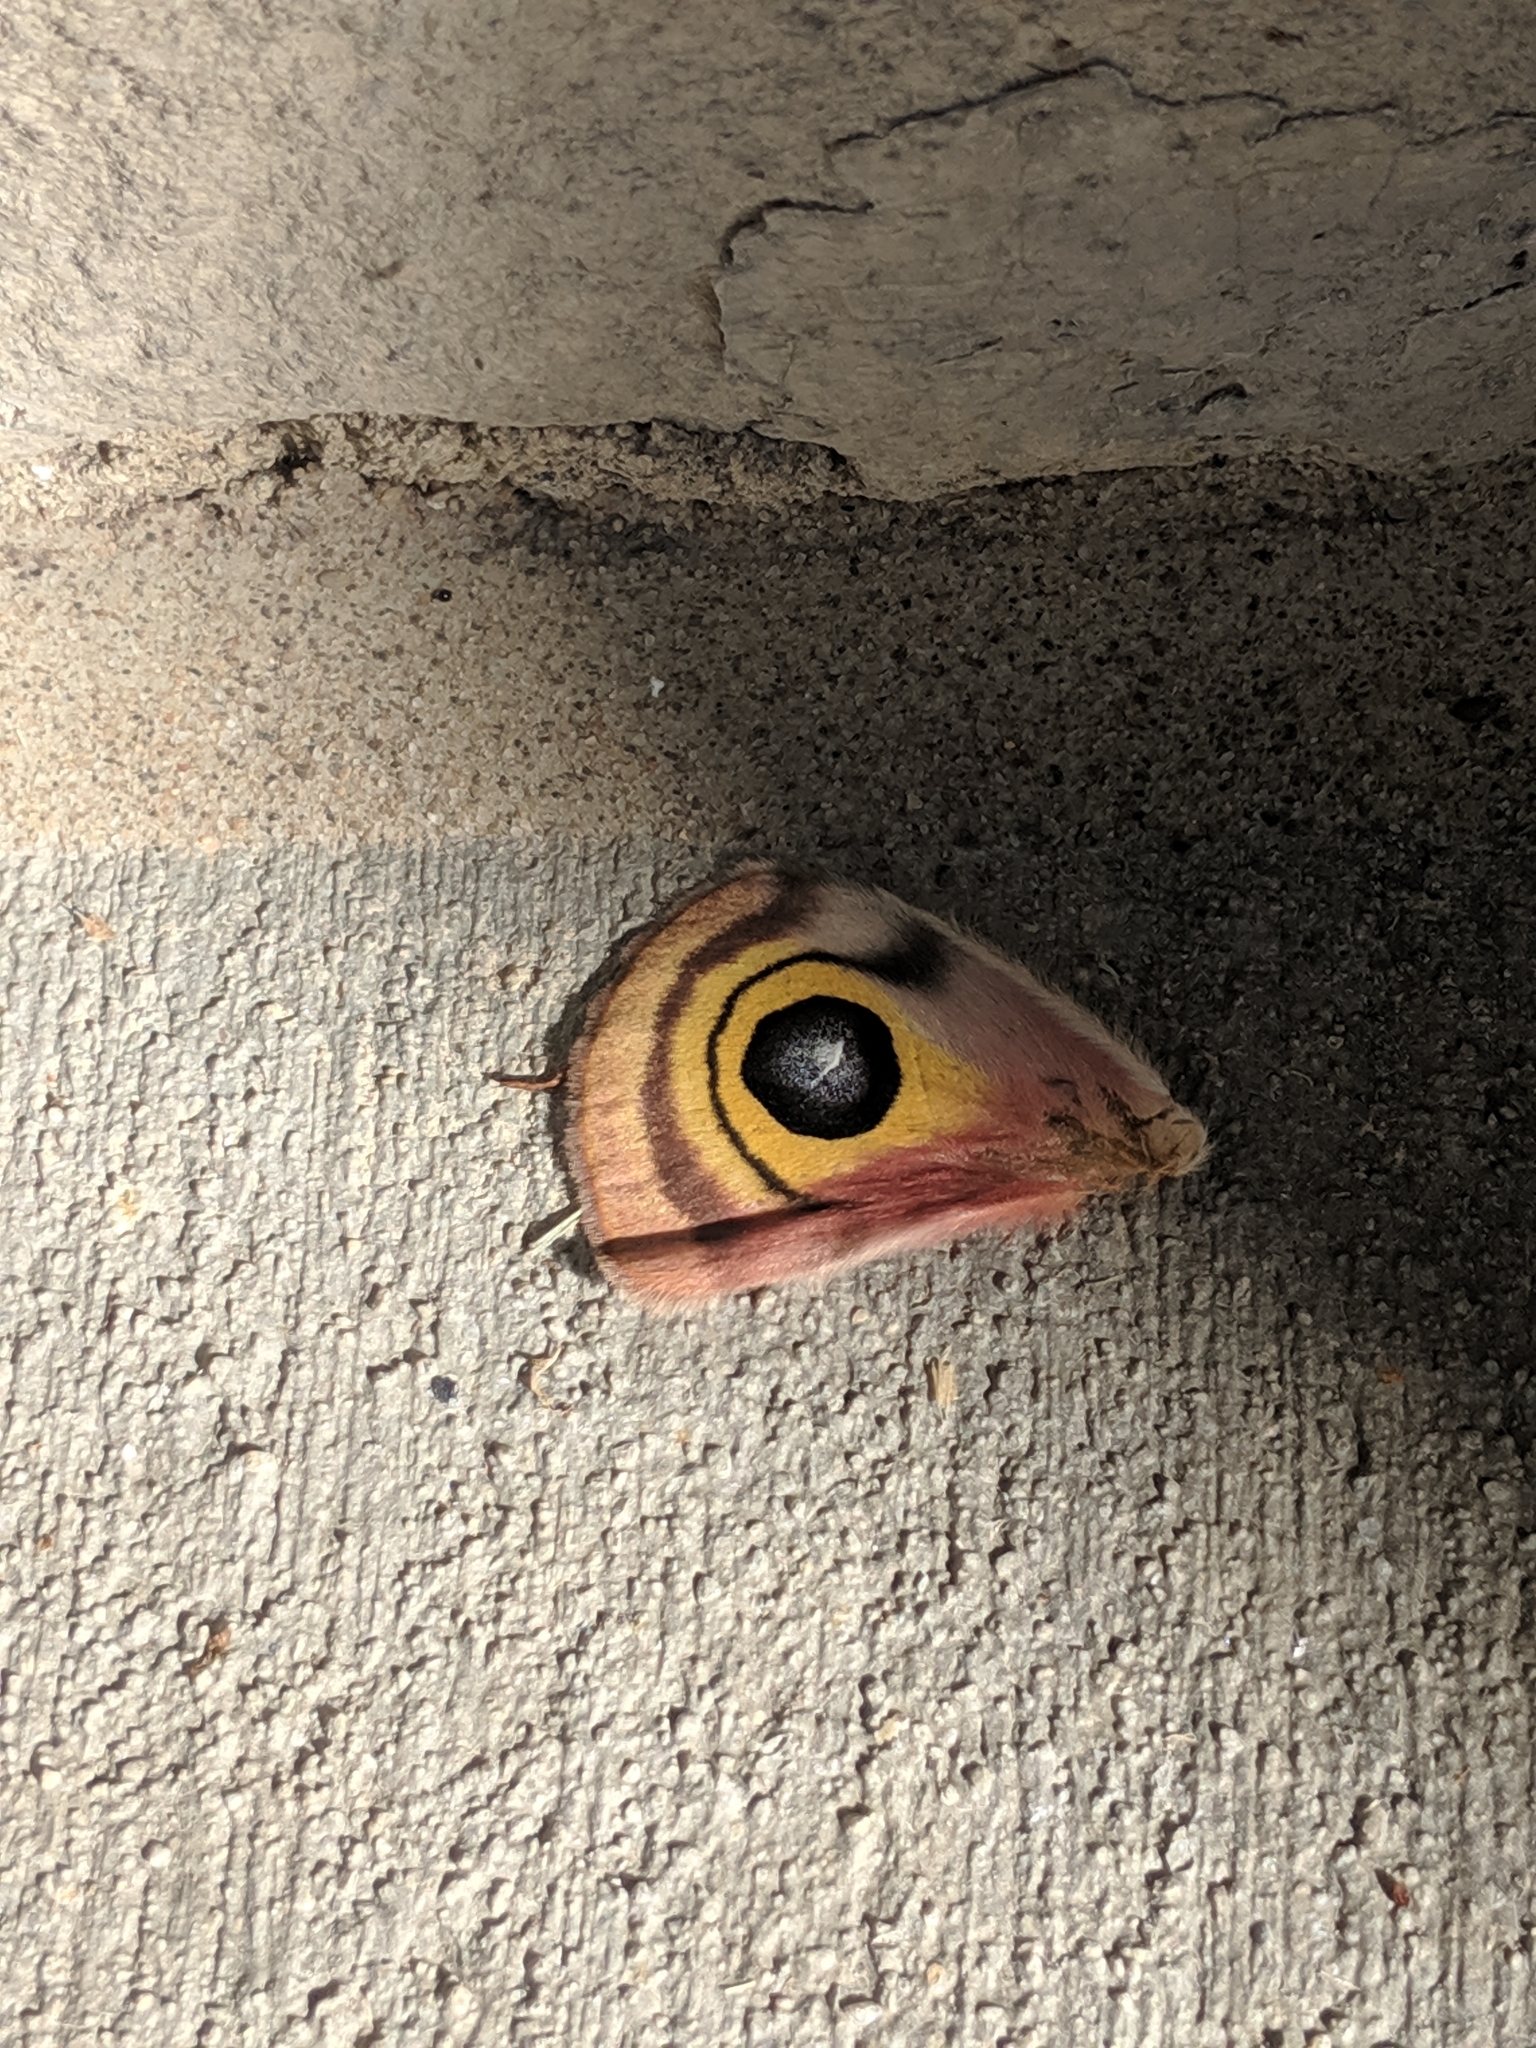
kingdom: Animalia
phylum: Arthropoda
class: Insecta
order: Lepidoptera
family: Saturniidae
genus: Automeris
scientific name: Automeris io
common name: Io moth
